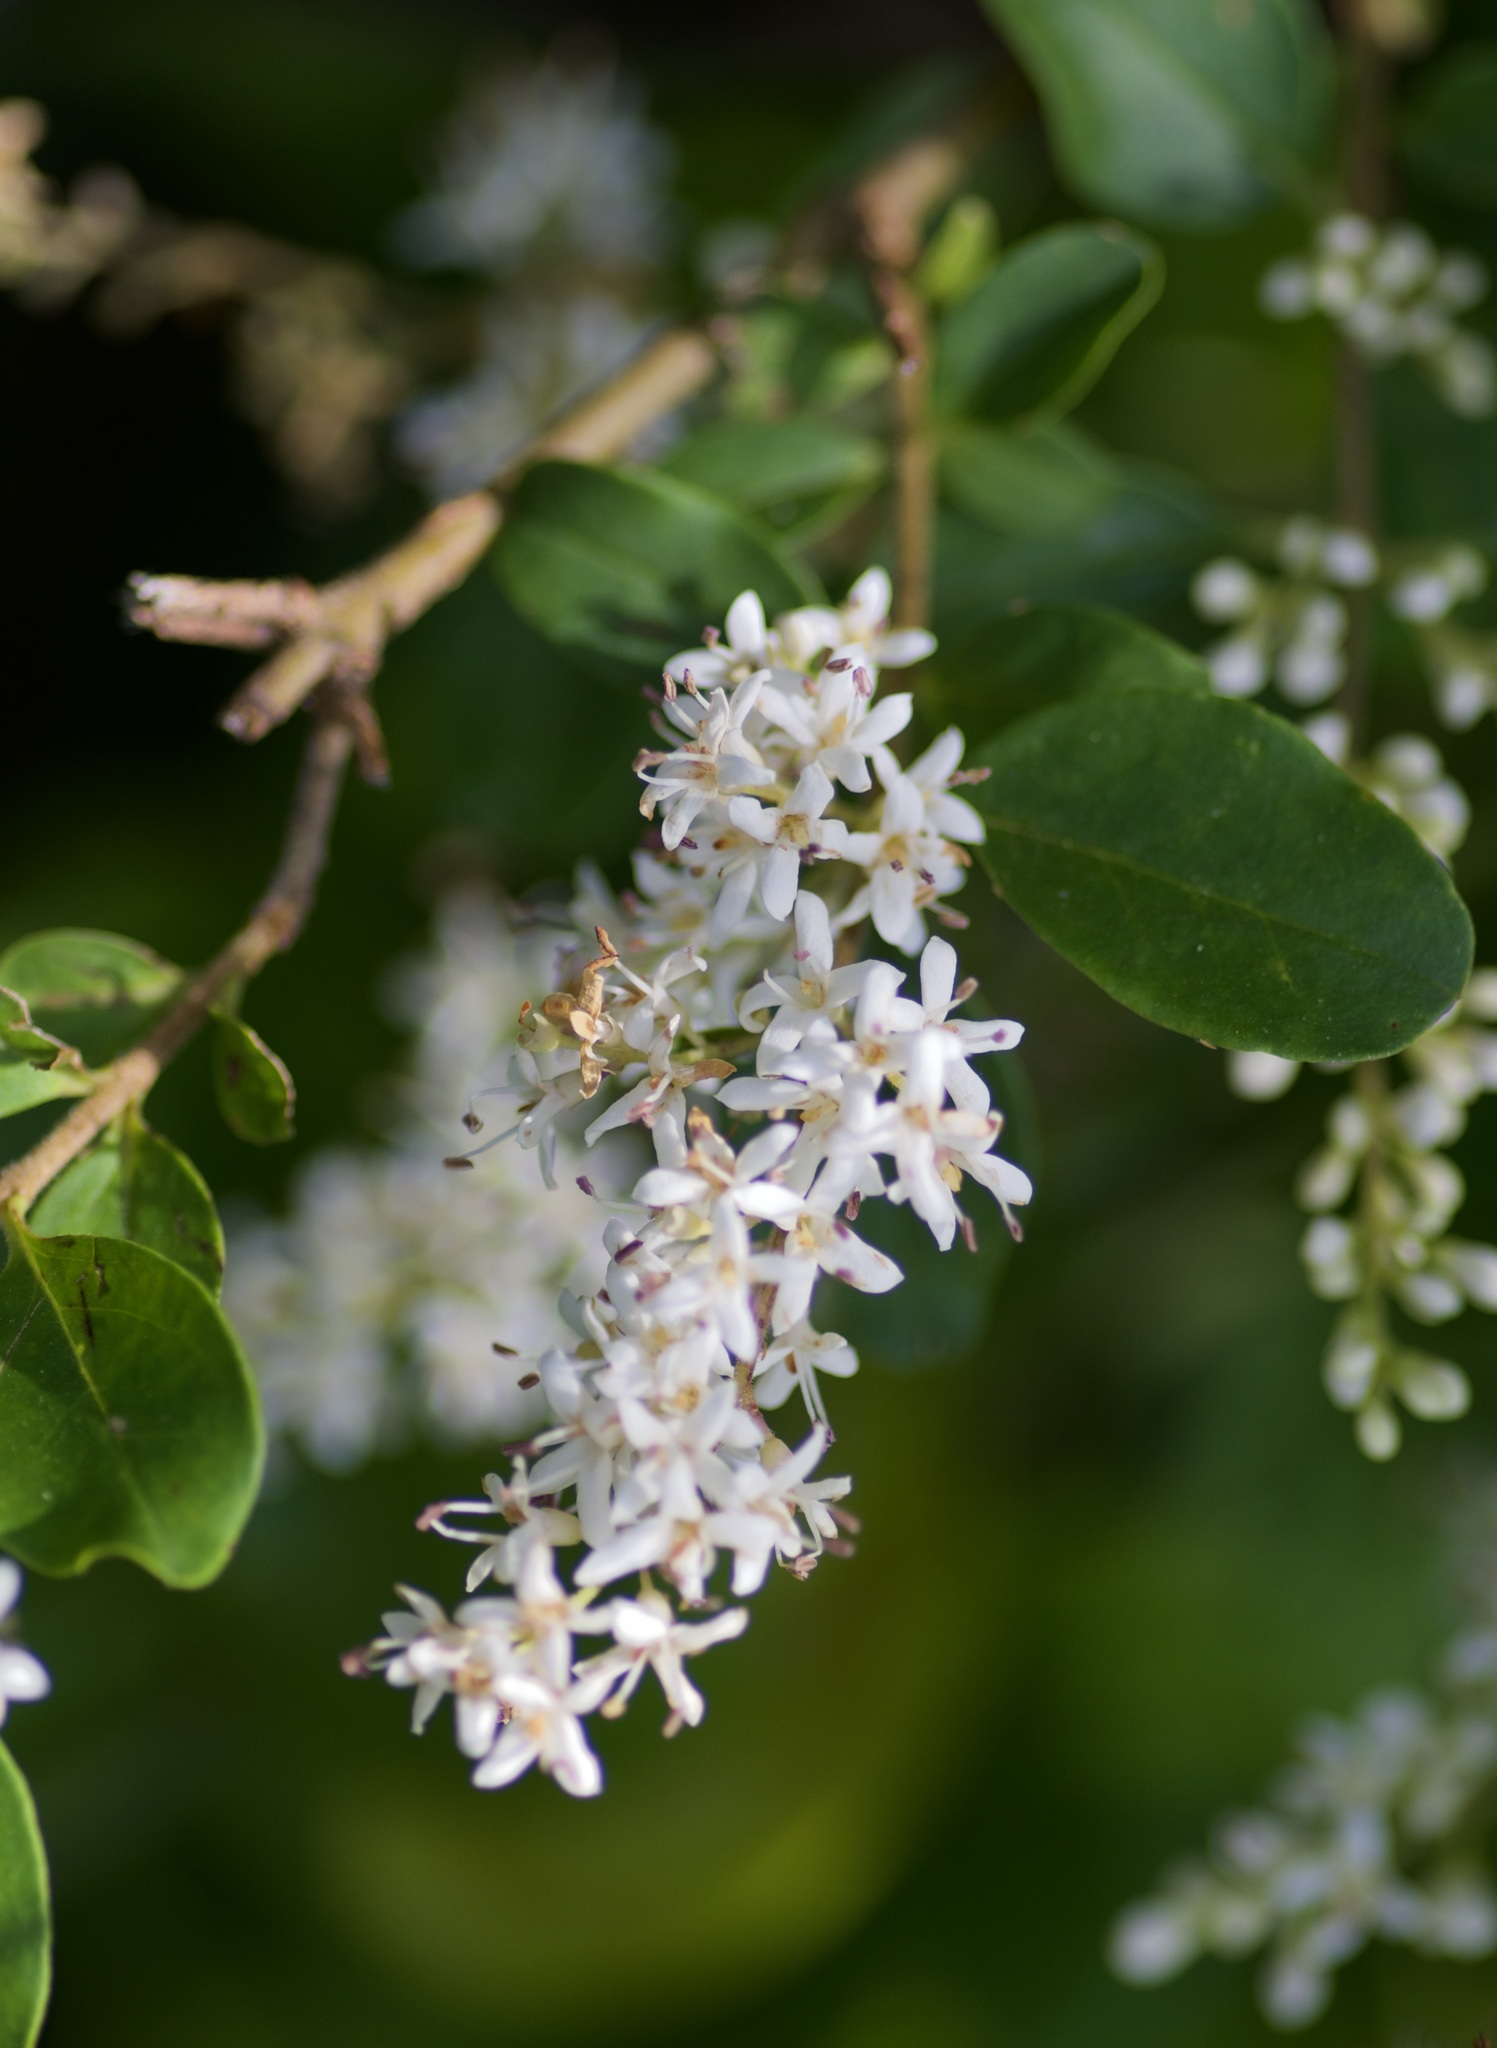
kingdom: Plantae
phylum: Tracheophyta
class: Magnoliopsida
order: Lamiales
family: Oleaceae
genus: Ligustrum
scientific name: Ligustrum sinense
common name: Chinese privet
